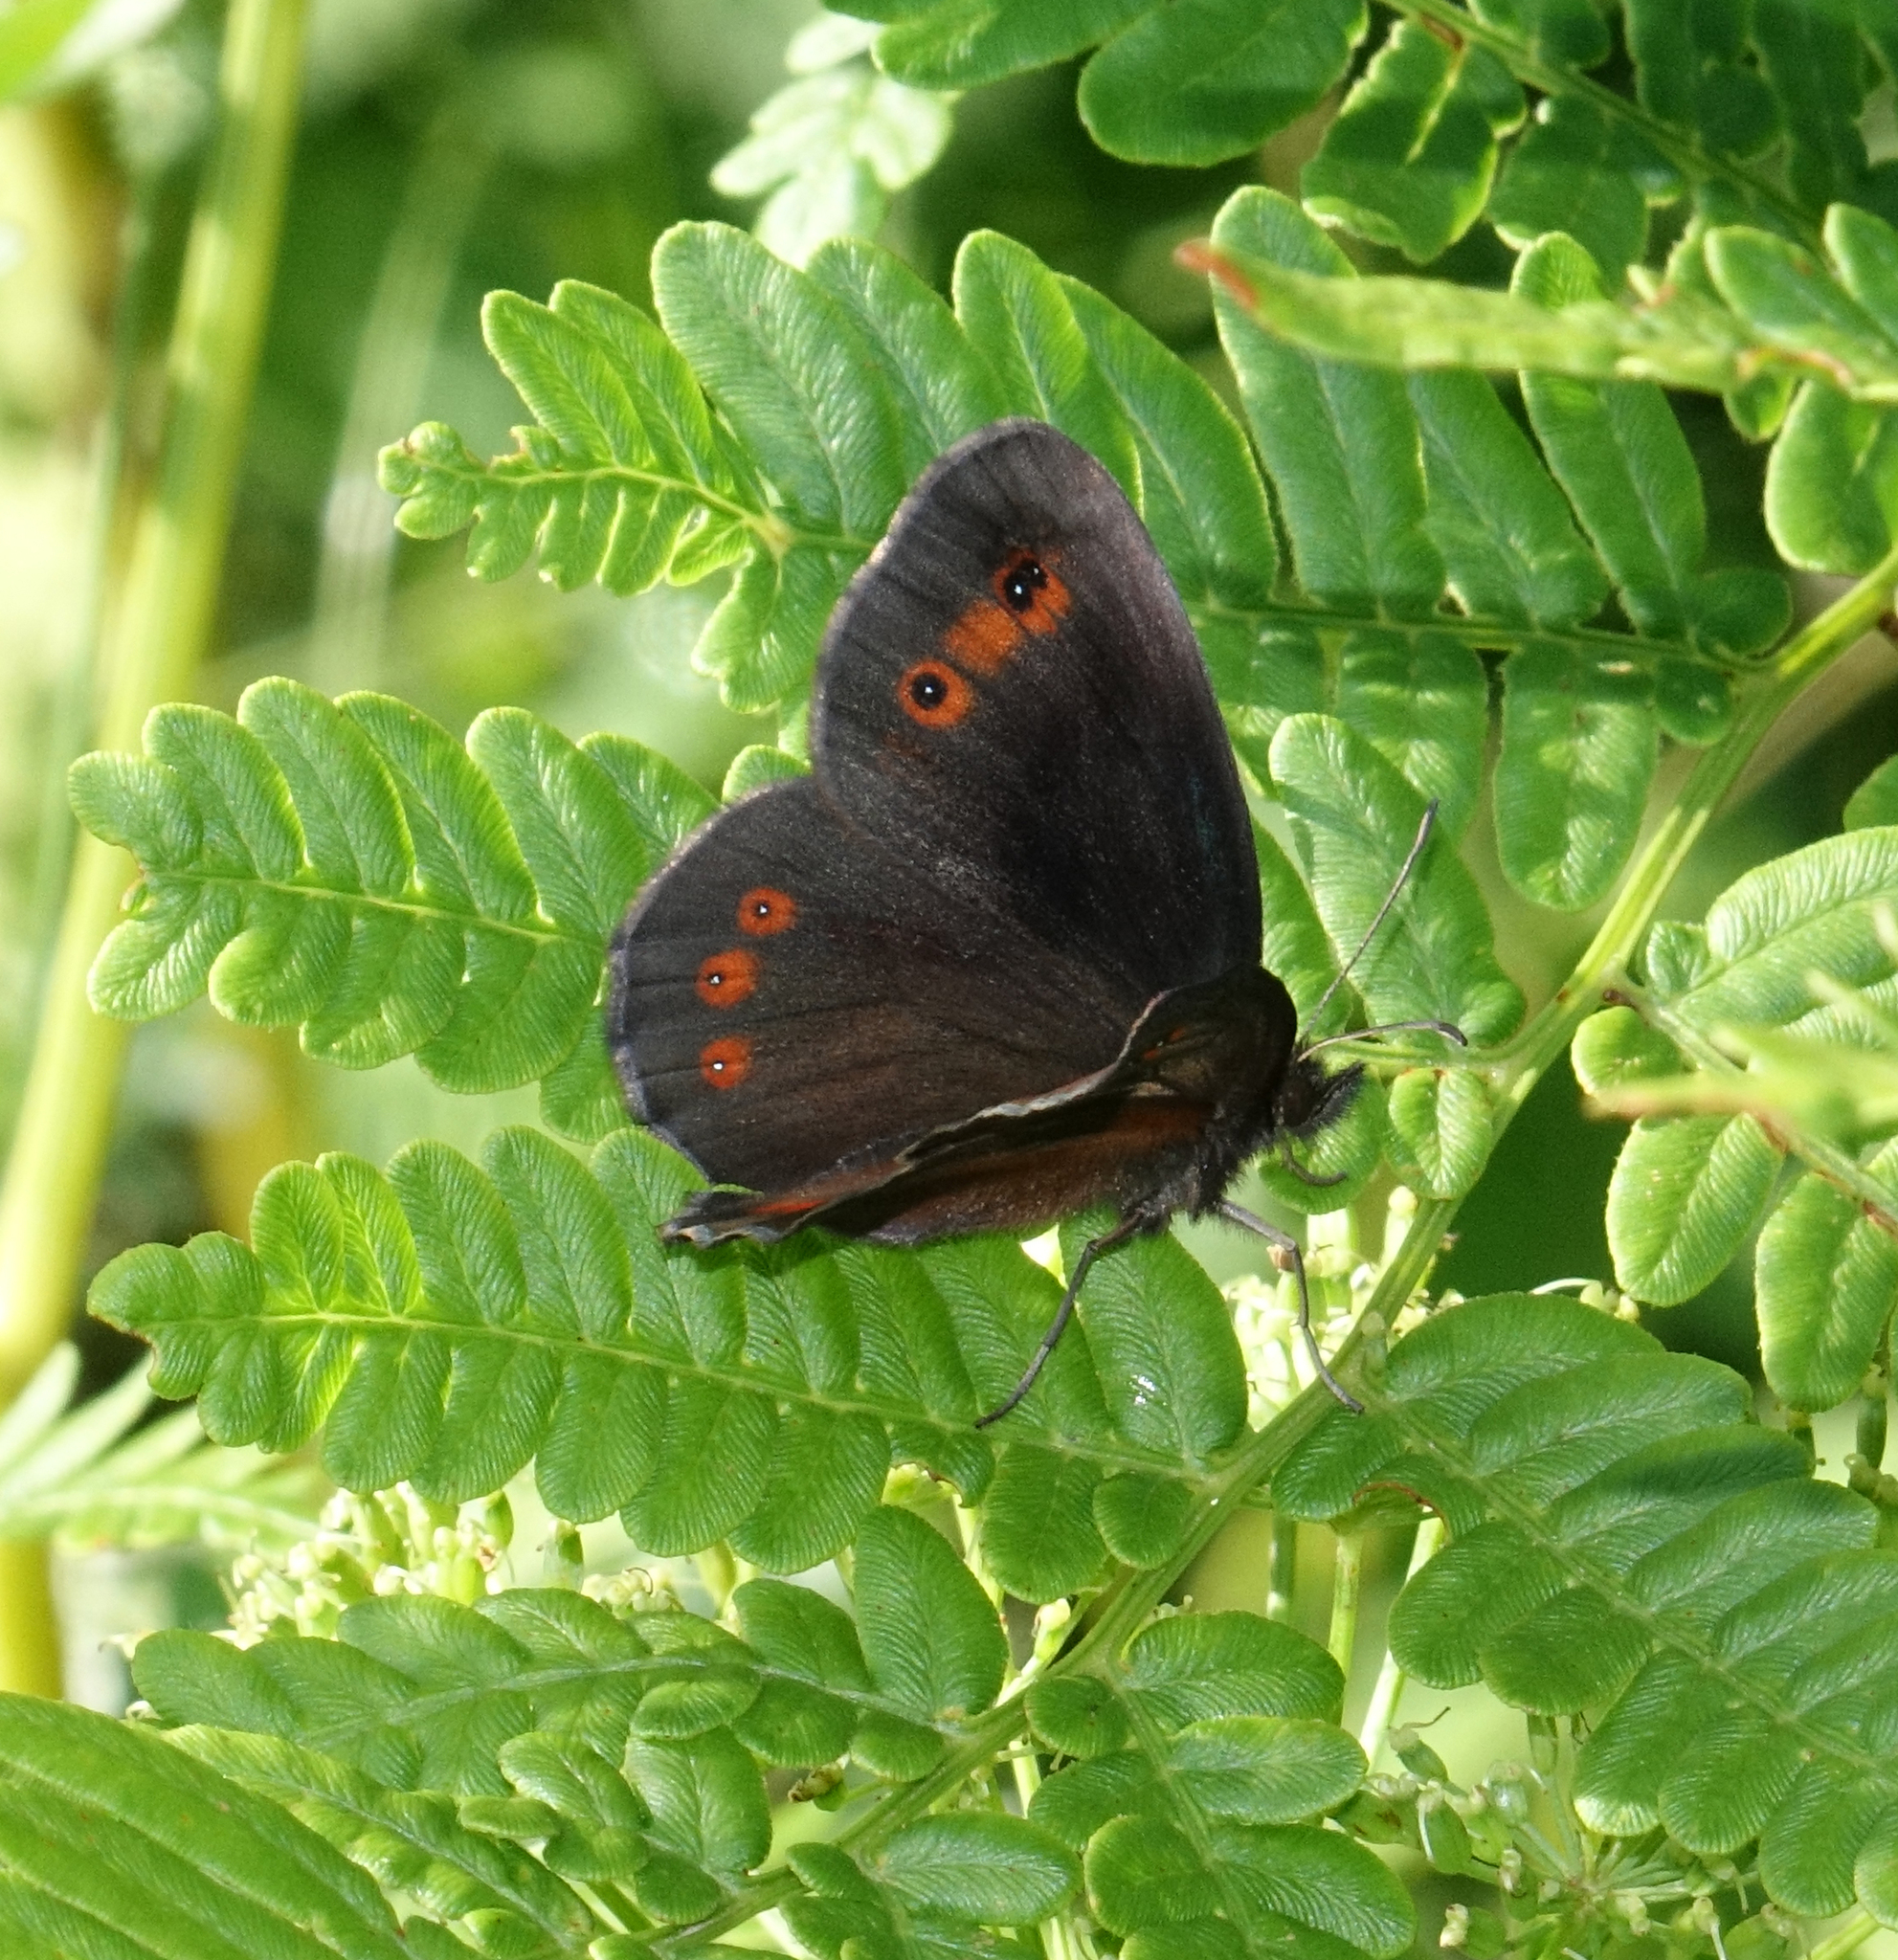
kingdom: Animalia
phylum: Arthropoda
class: Insecta
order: Lepidoptera
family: Nymphalidae
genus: Erebia
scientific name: Erebia aethiops
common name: Scotch argus
